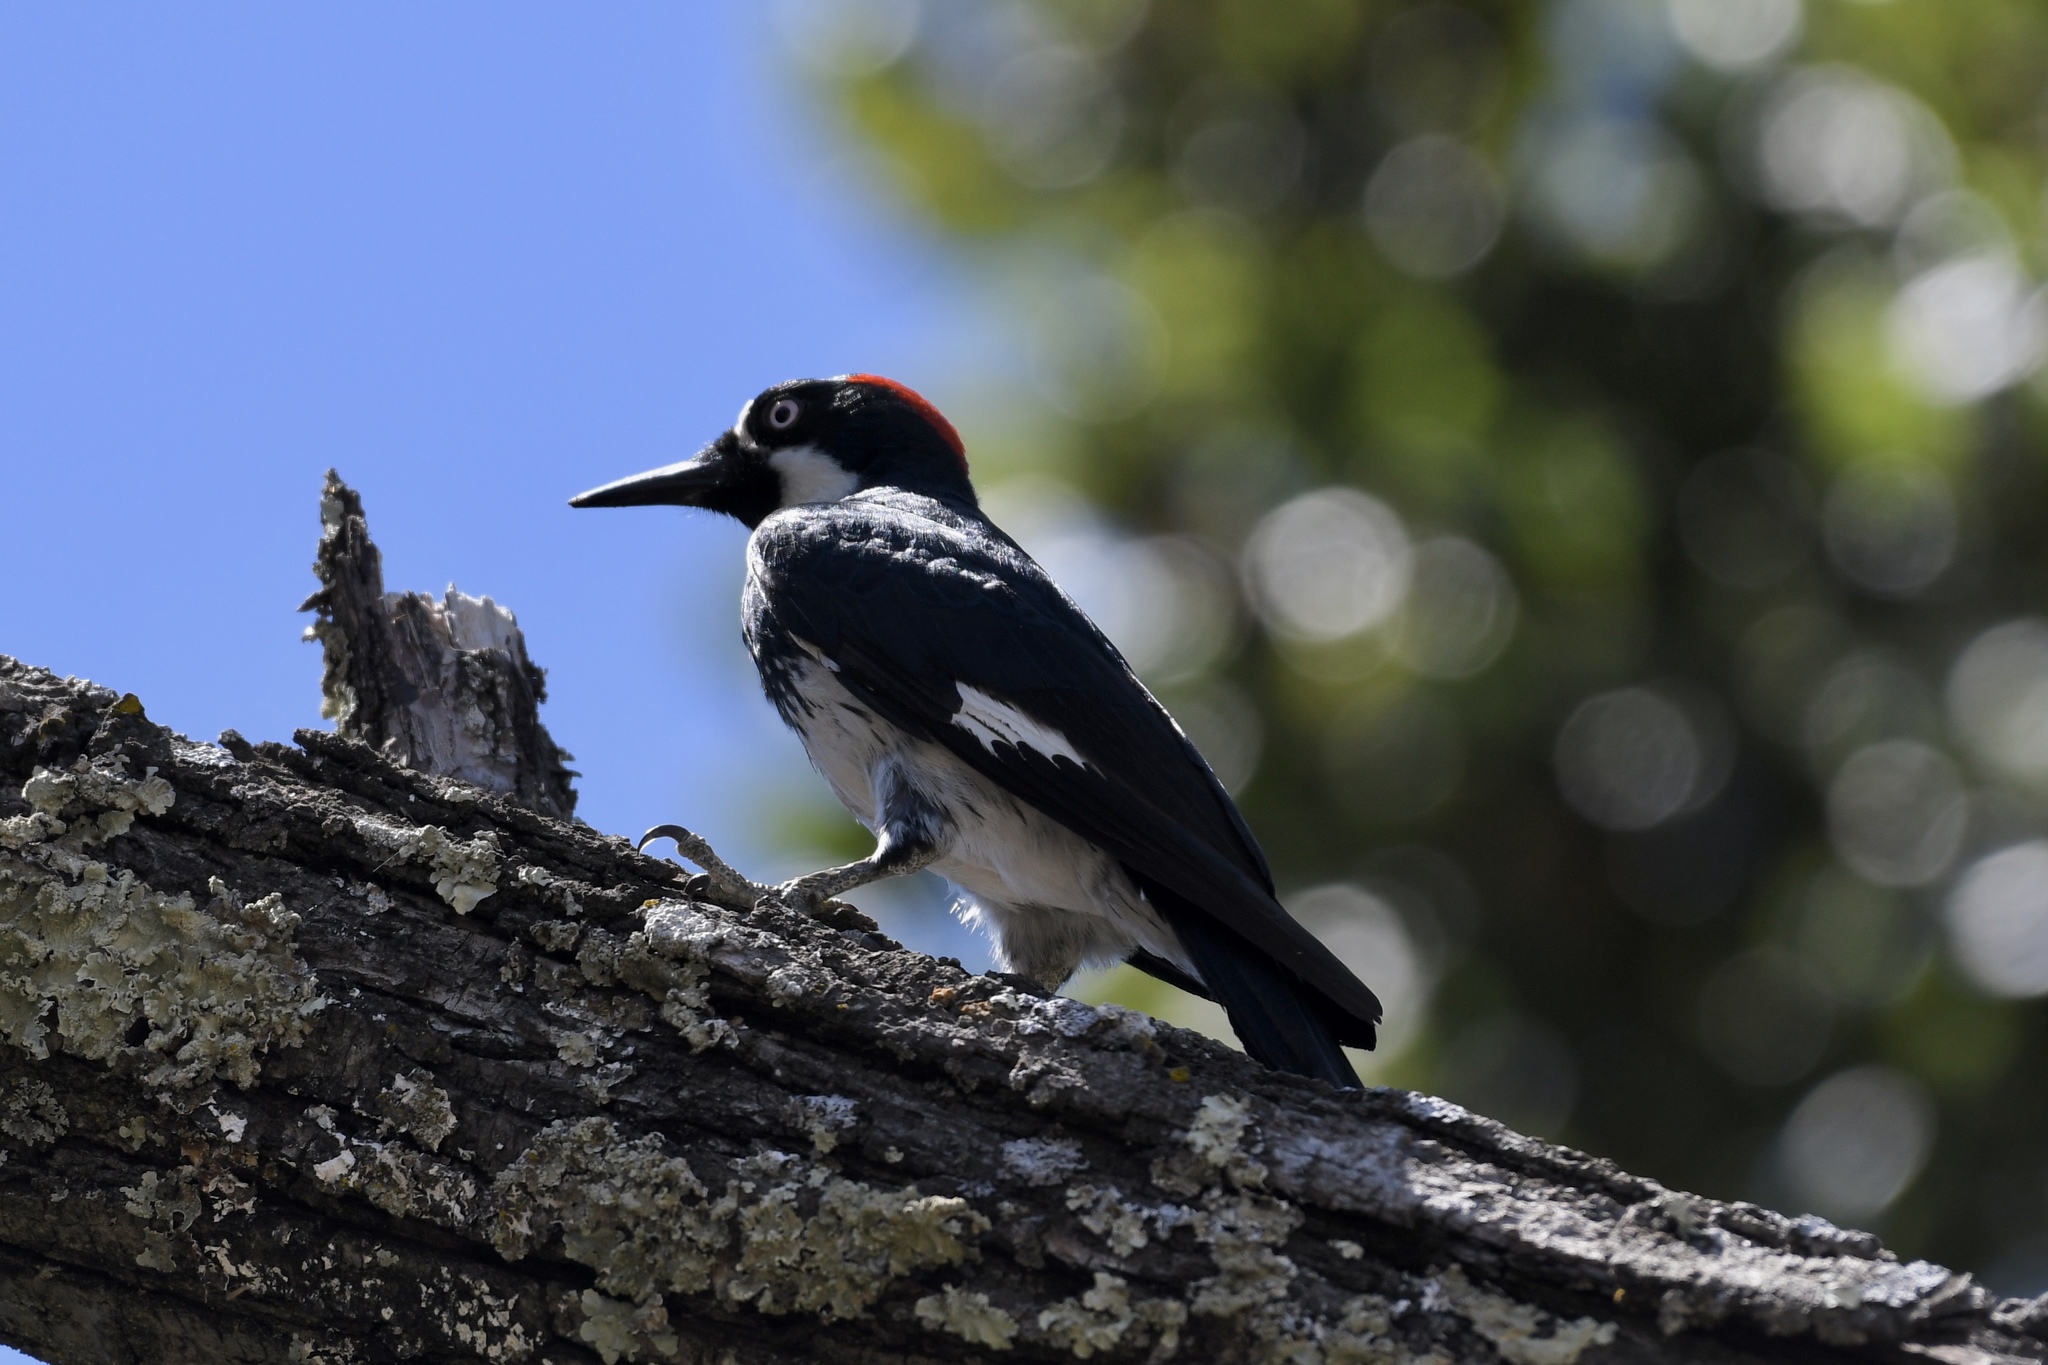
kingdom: Animalia
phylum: Chordata
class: Aves
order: Piciformes
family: Picidae
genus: Melanerpes
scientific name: Melanerpes formicivorus
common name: Acorn woodpecker
